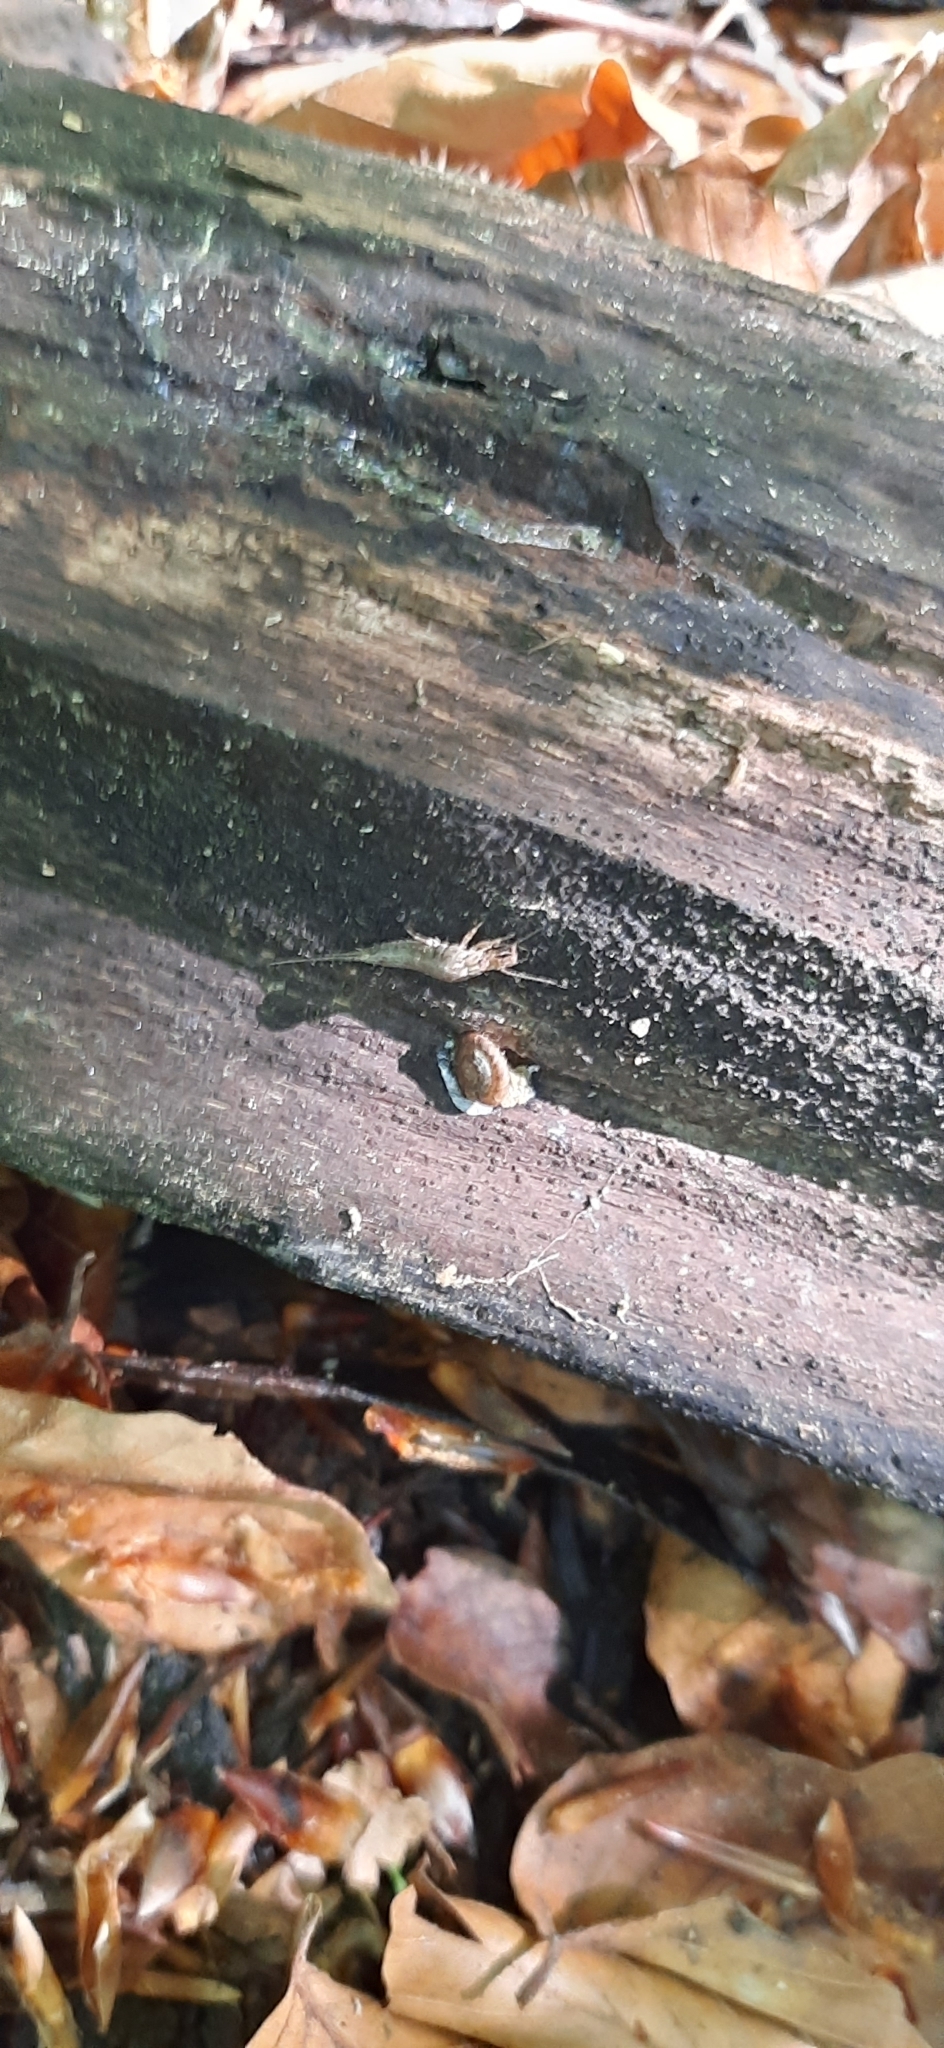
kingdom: Animalia
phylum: Arthropoda
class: Insecta
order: Archaeognatha
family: Machilidae
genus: Lepismachilis
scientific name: Lepismachilis
